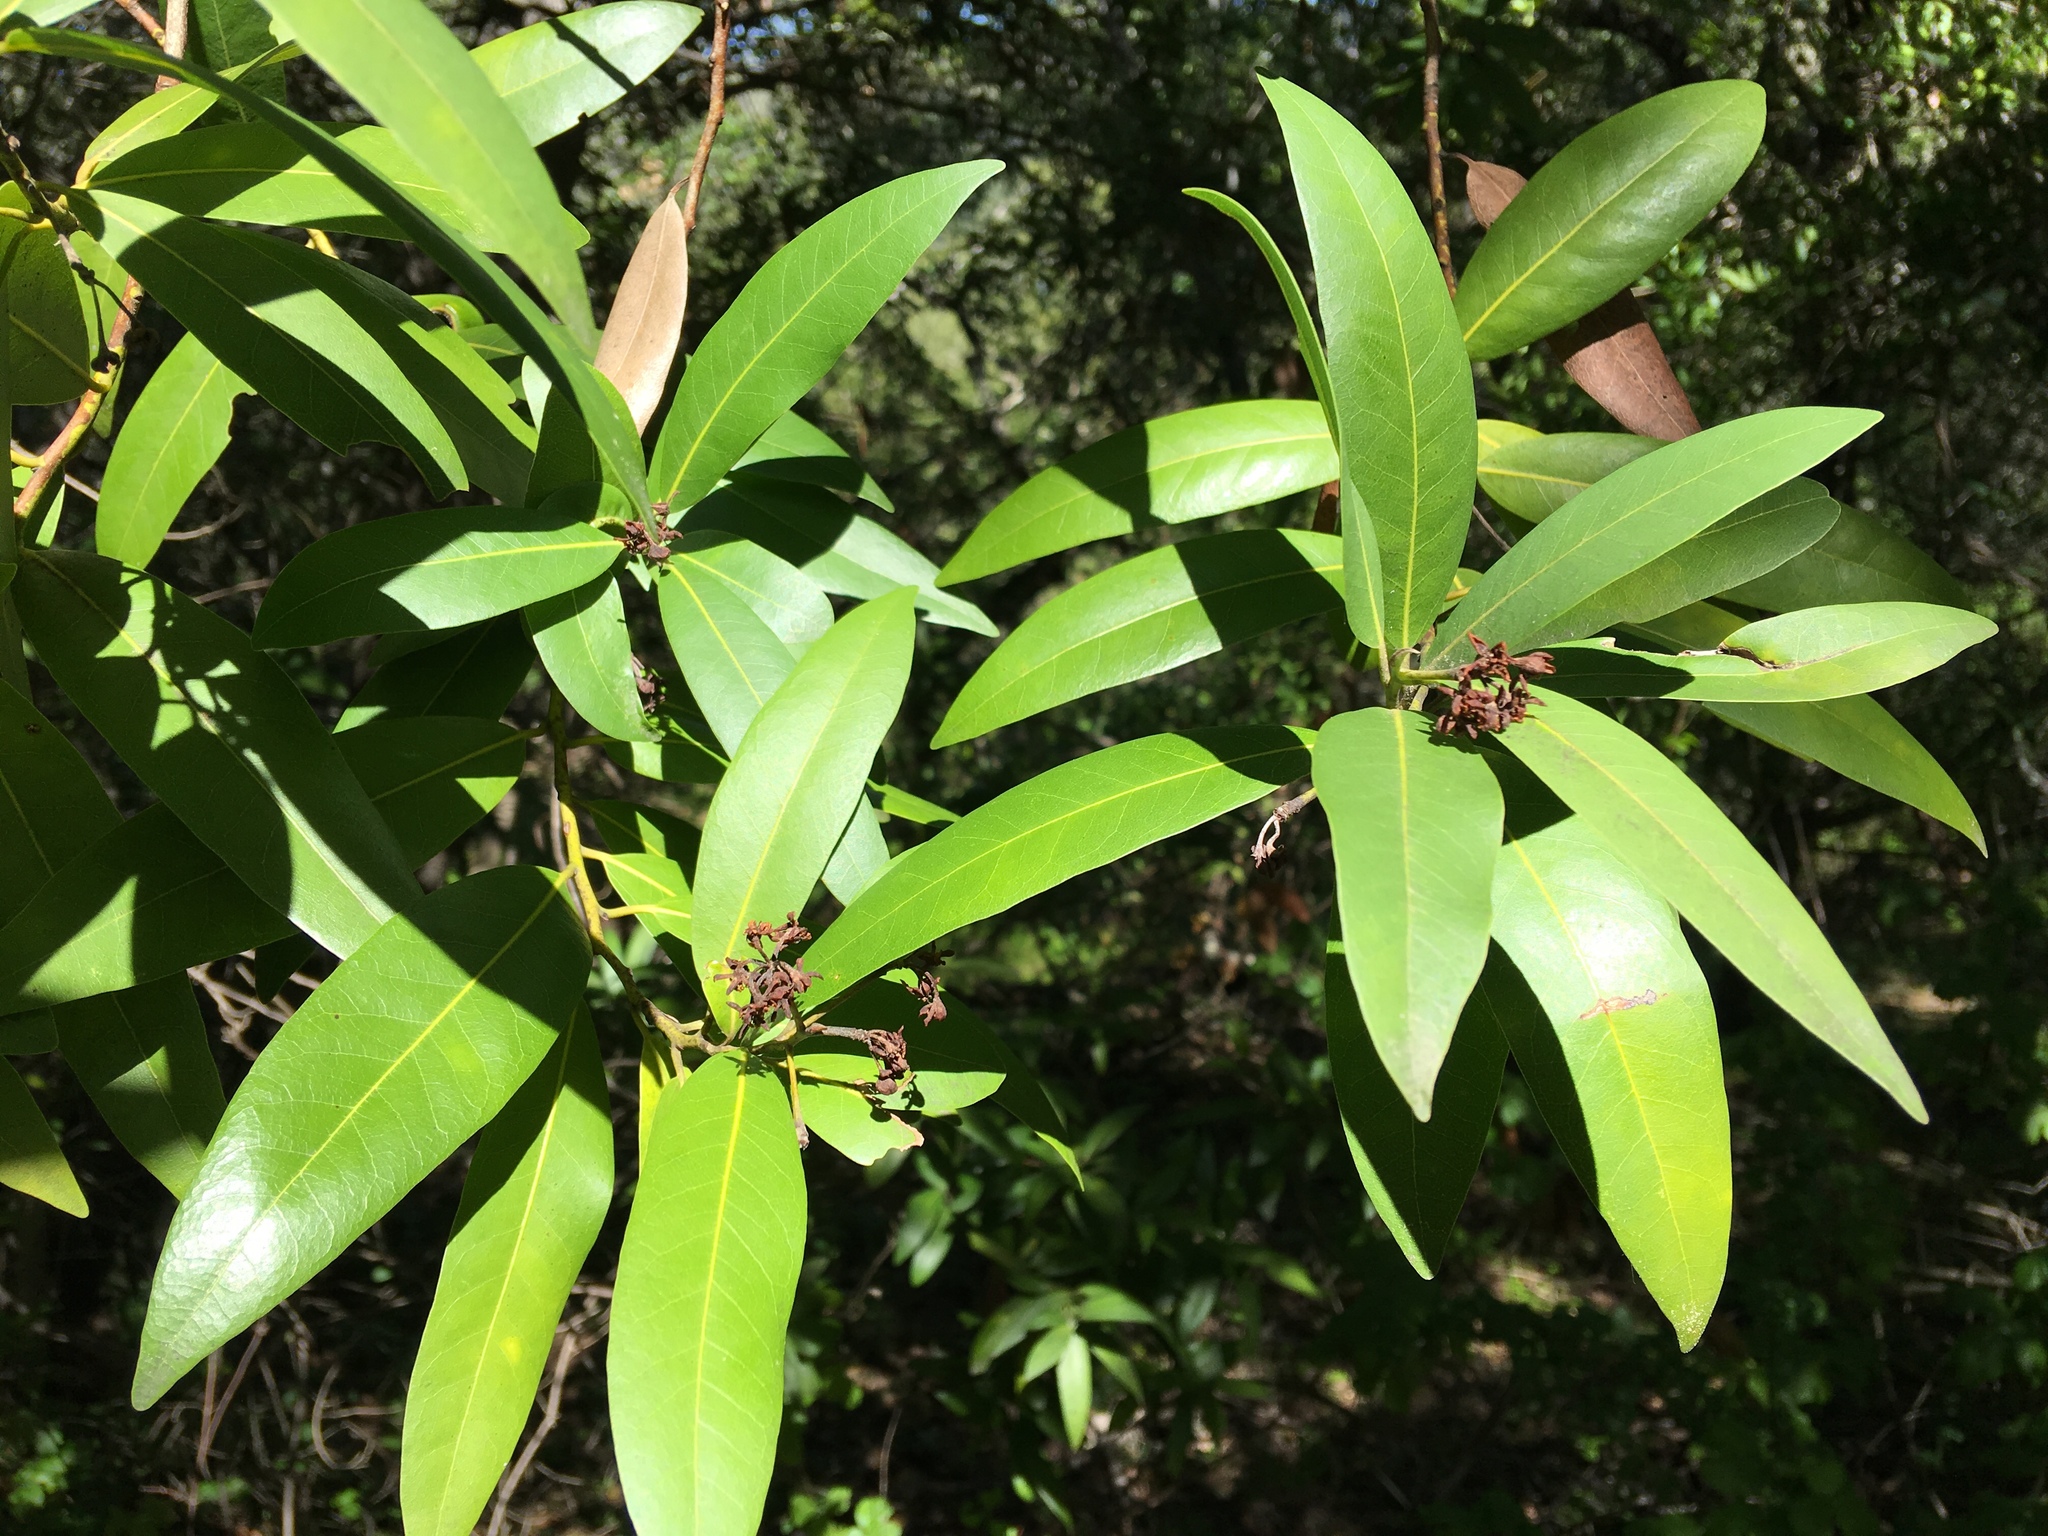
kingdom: Plantae
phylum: Tracheophyta
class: Magnoliopsida
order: Laurales
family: Lauraceae
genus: Umbellularia
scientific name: Umbellularia californica
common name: California bay
